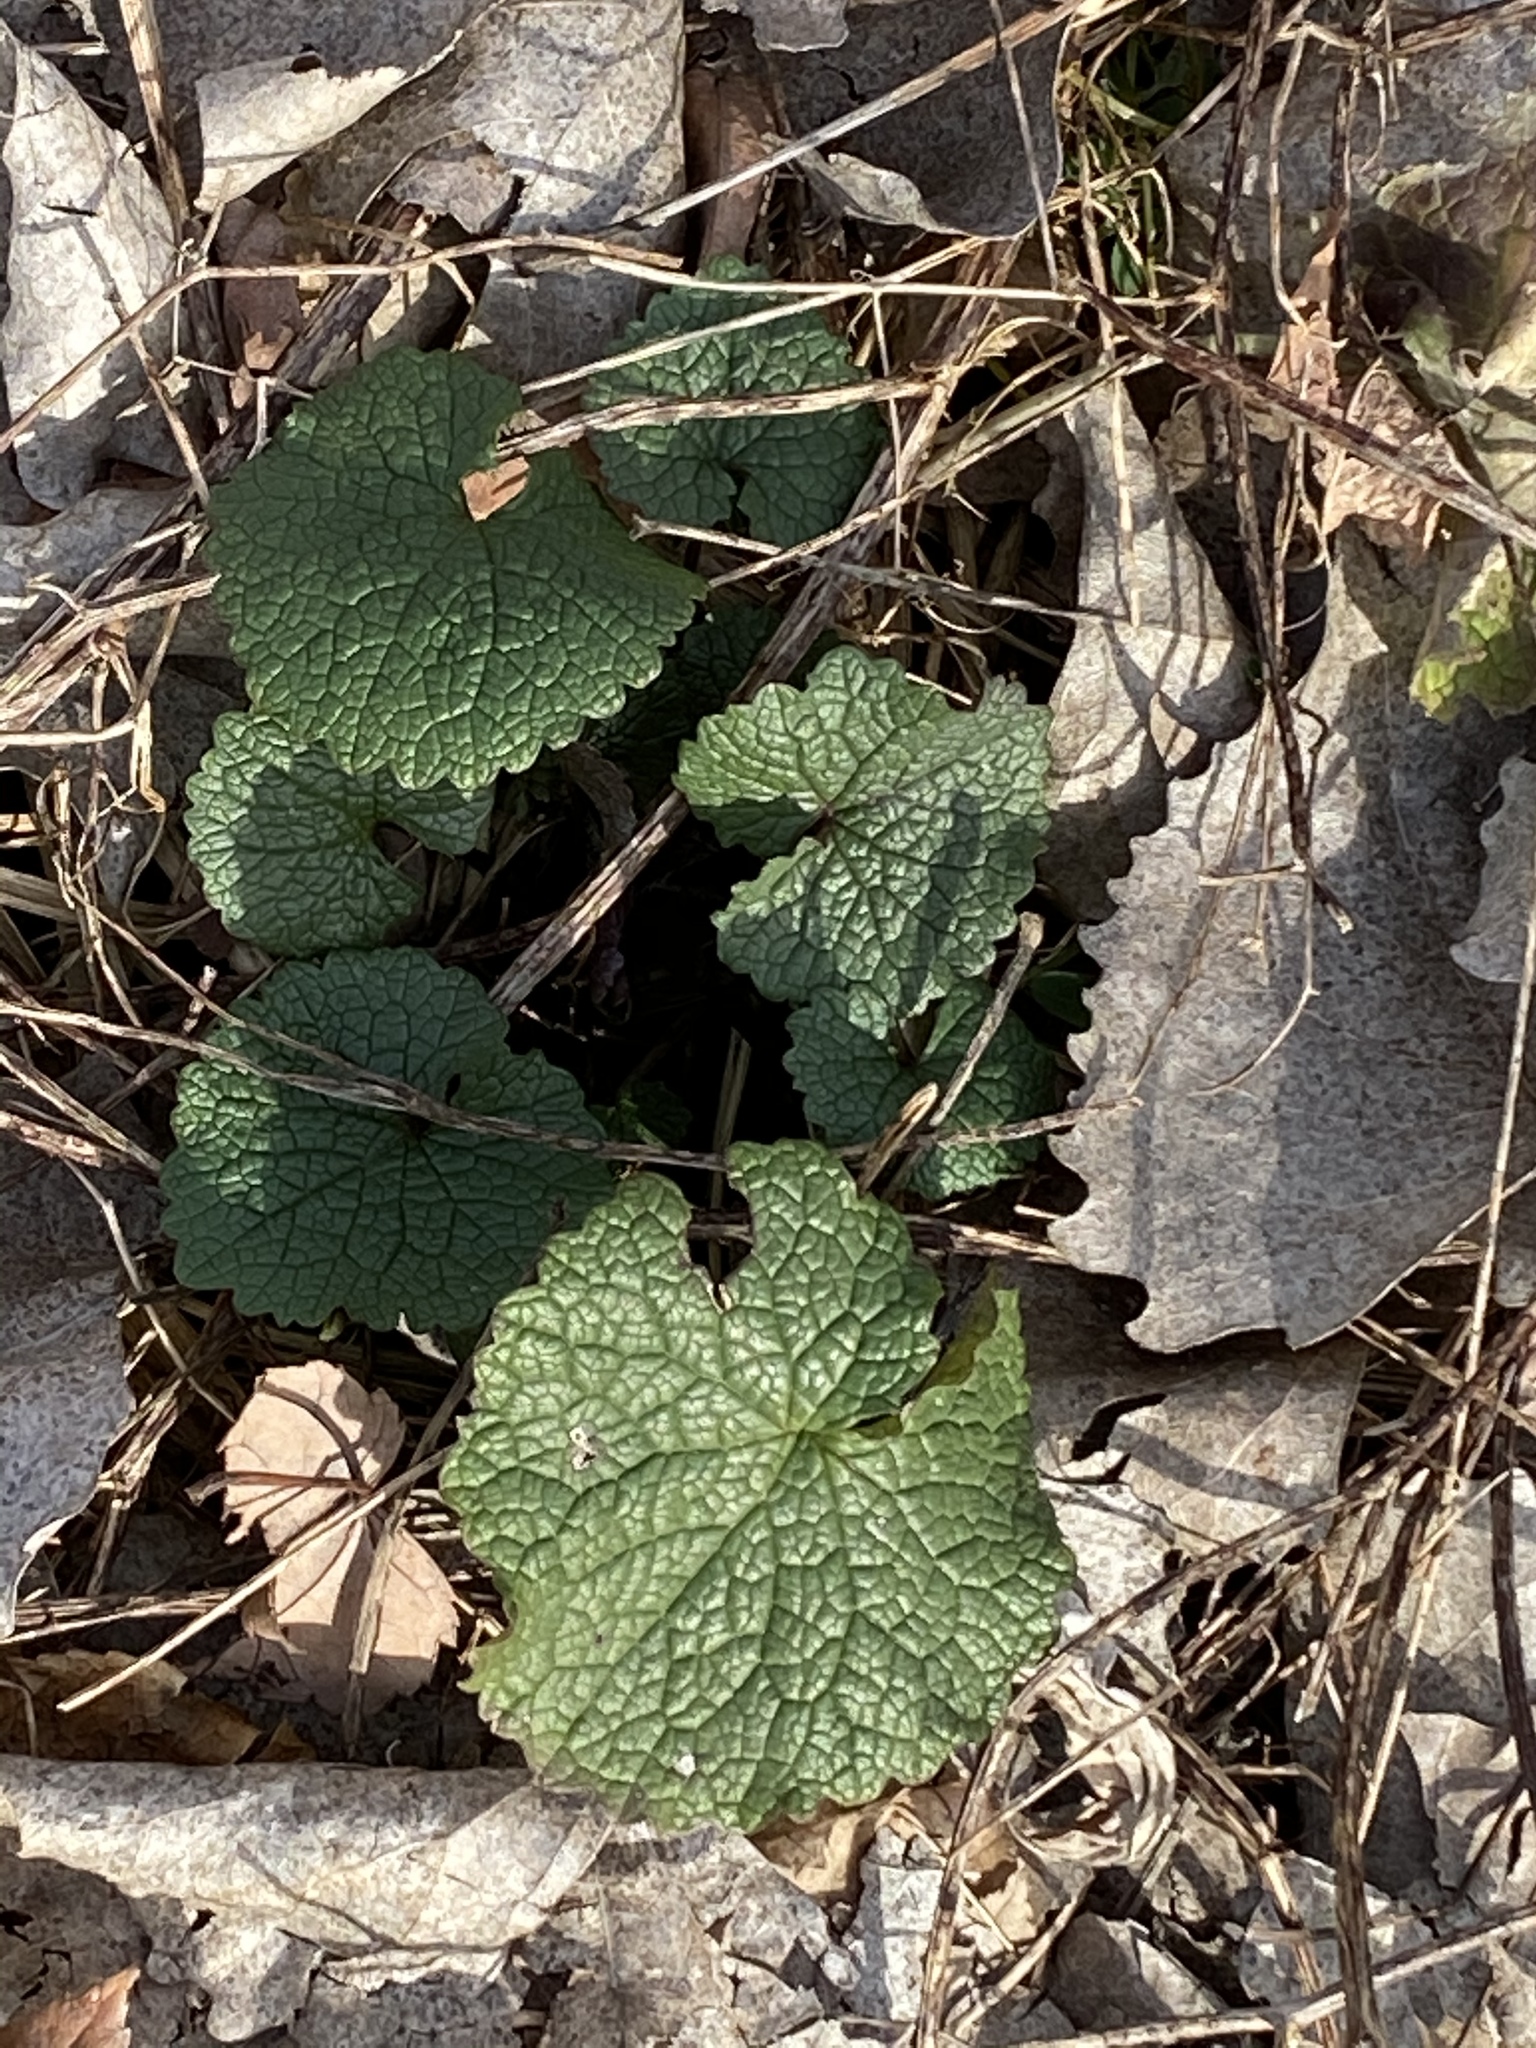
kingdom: Plantae
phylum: Tracheophyta
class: Magnoliopsida
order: Brassicales
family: Brassicaceae
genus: Alliaria
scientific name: Alliaria petiolata
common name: Garlic mustard
